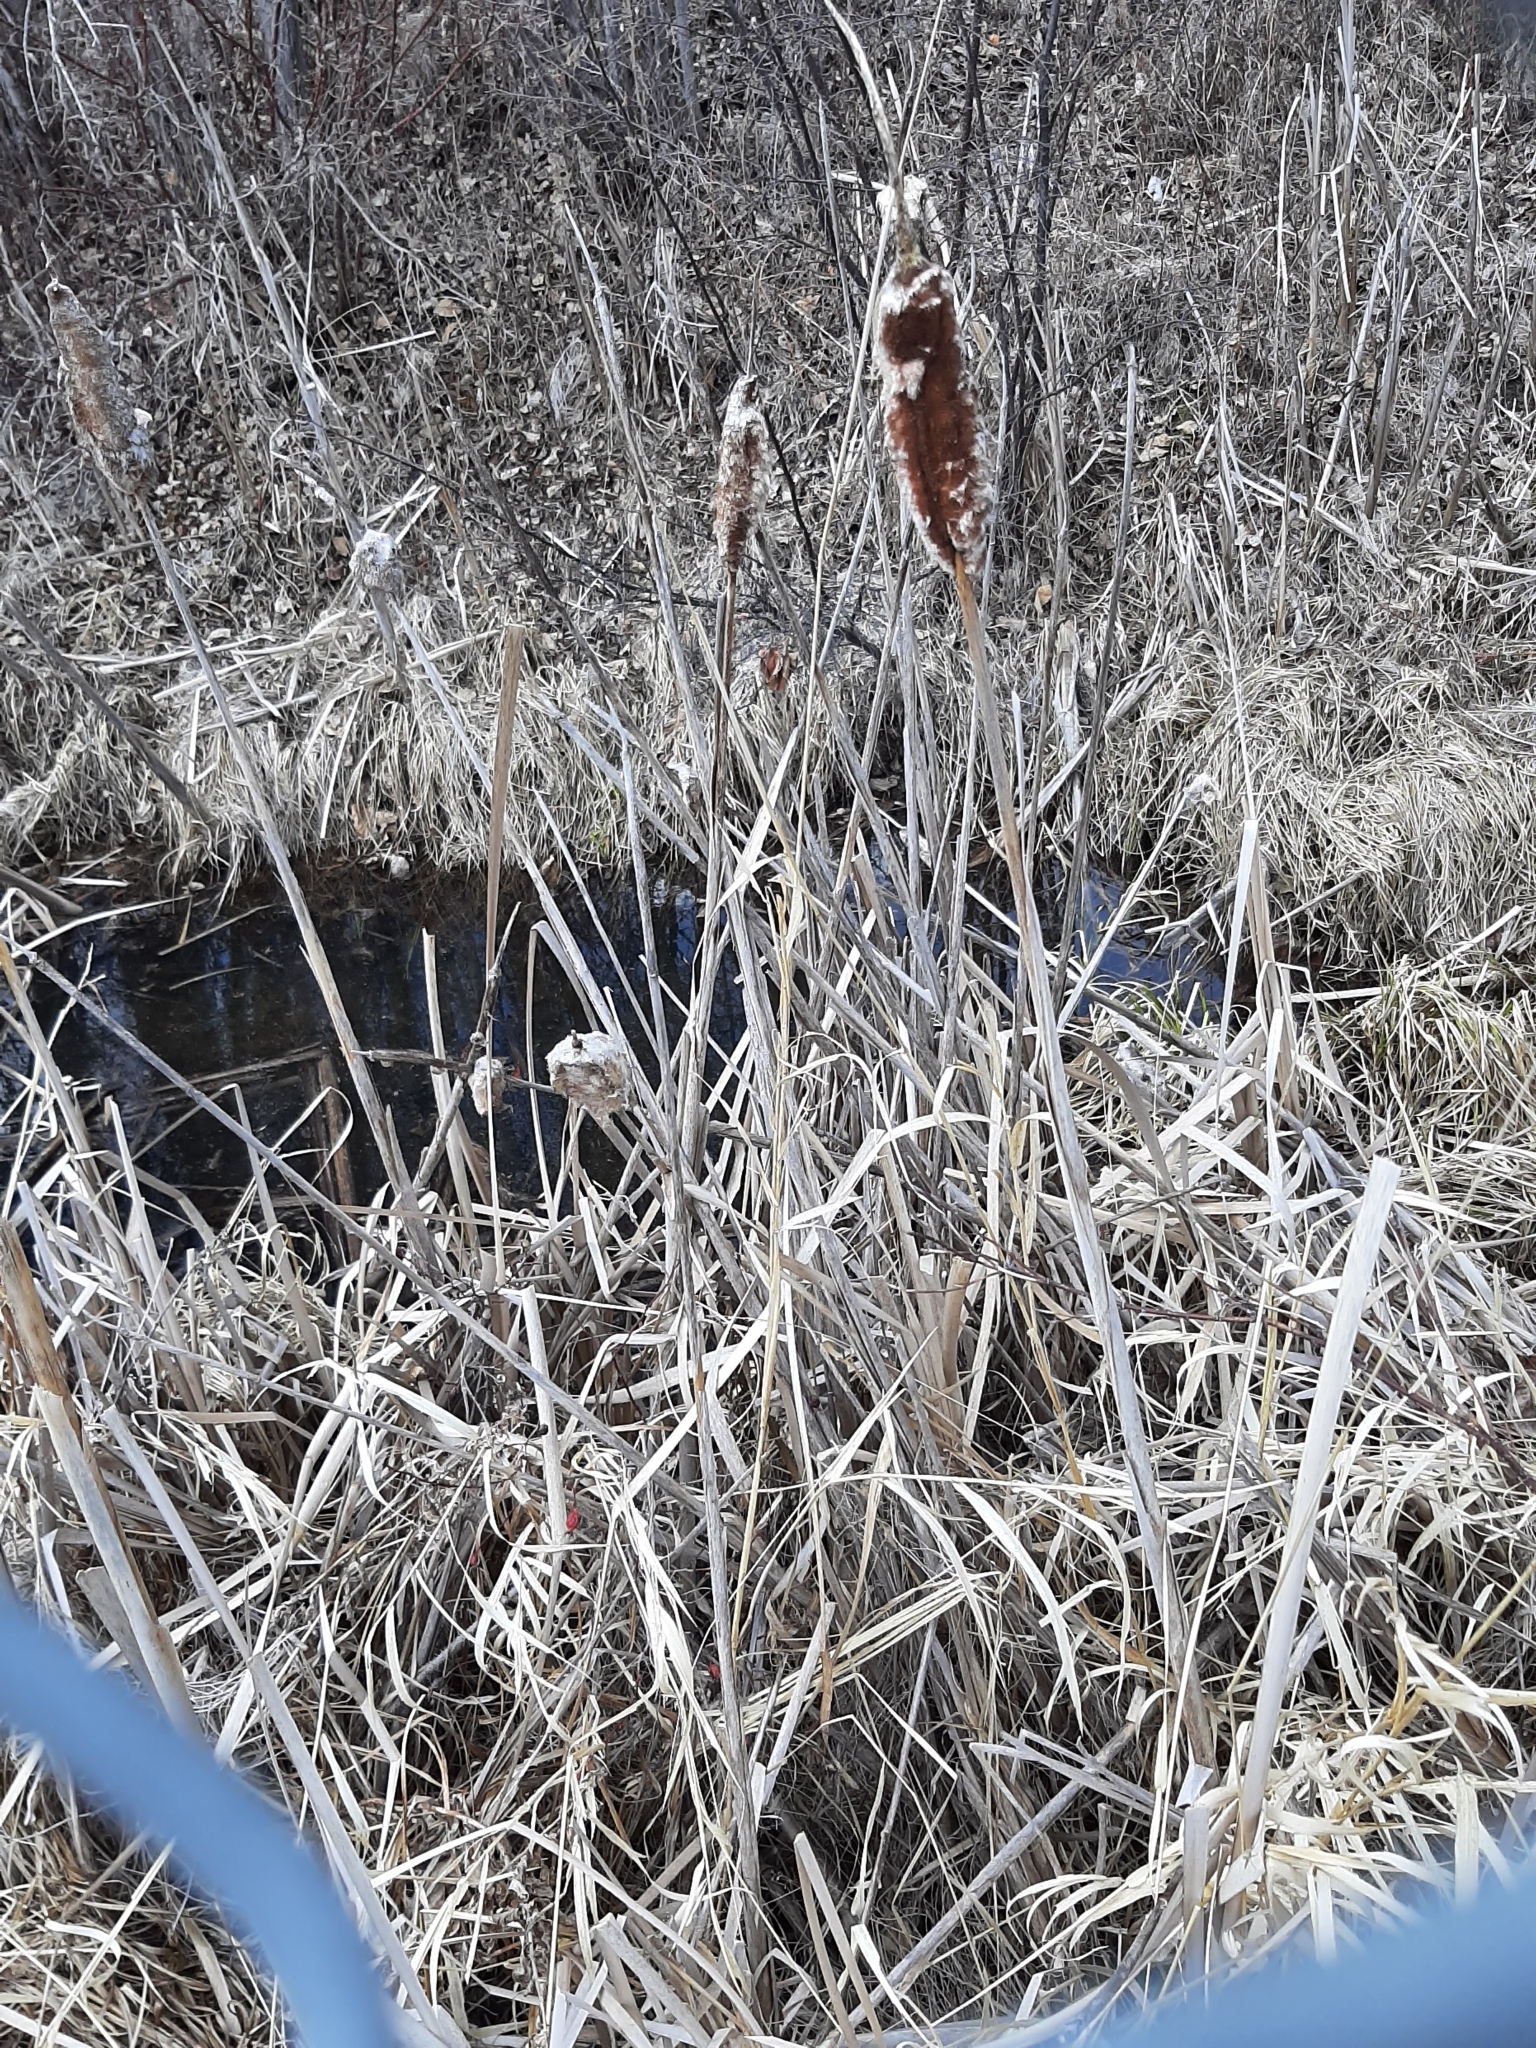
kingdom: Plantae
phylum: Tracheophyta
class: Liliopsida
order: Poales
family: Typhaceae
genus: Typha
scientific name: Typha latifolia
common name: Broadleaf cattail
